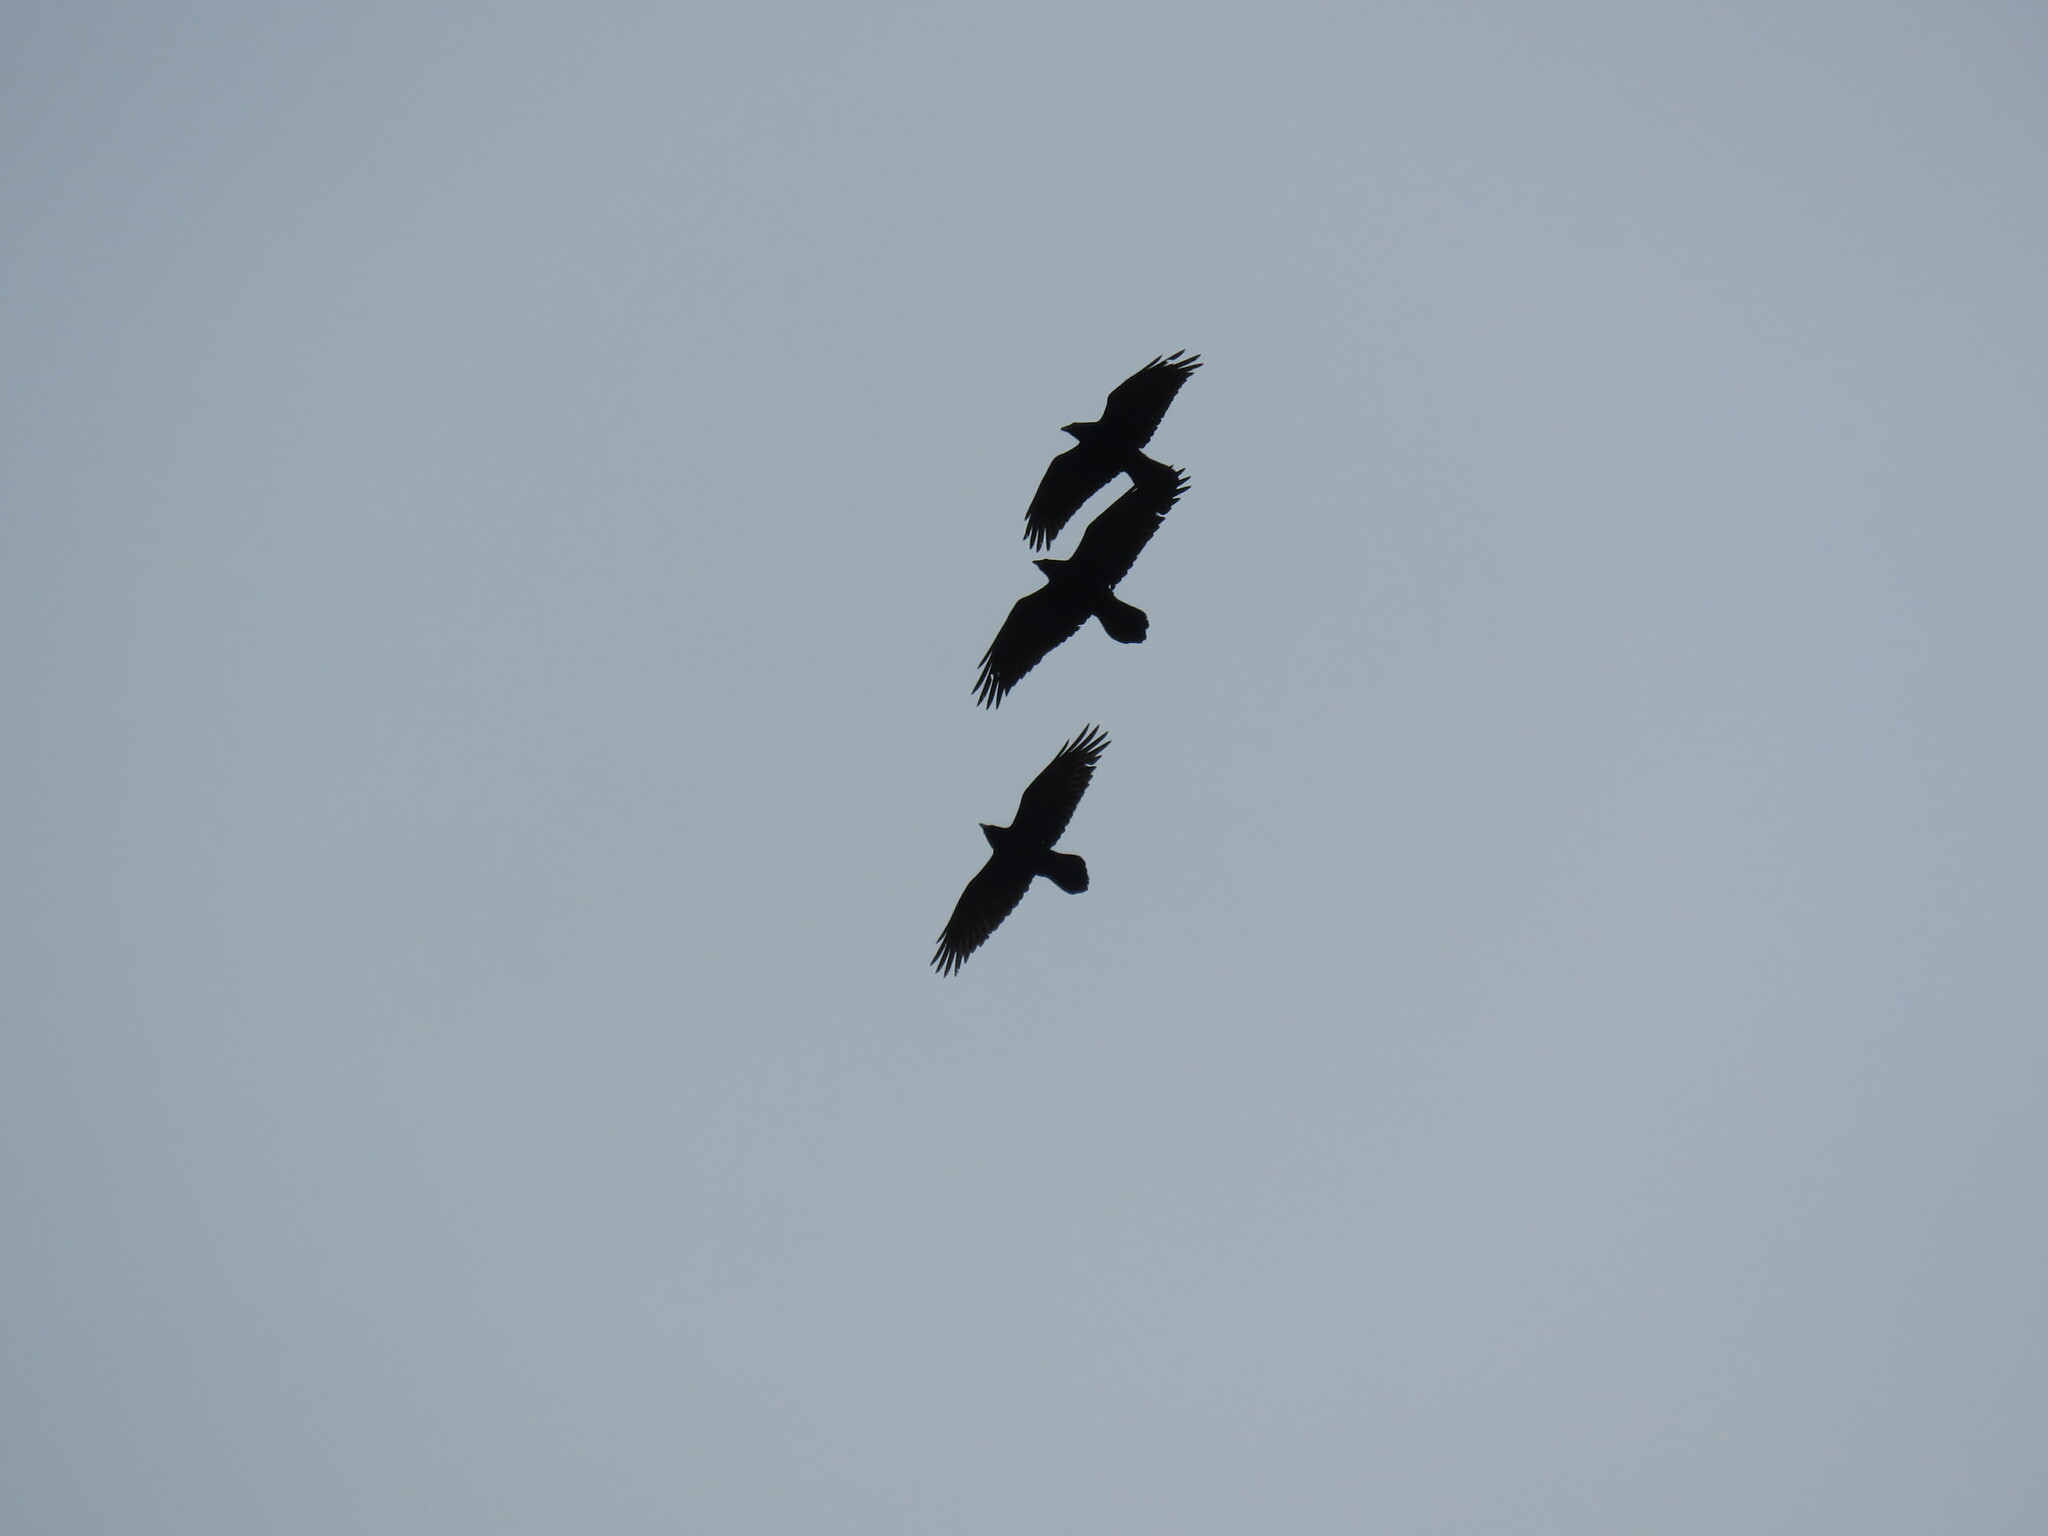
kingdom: Animalia
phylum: Chordata
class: Aves
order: Passeriformes
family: Corvidae
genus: Corvus
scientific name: Corvus brachyrhynchos
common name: American crow
